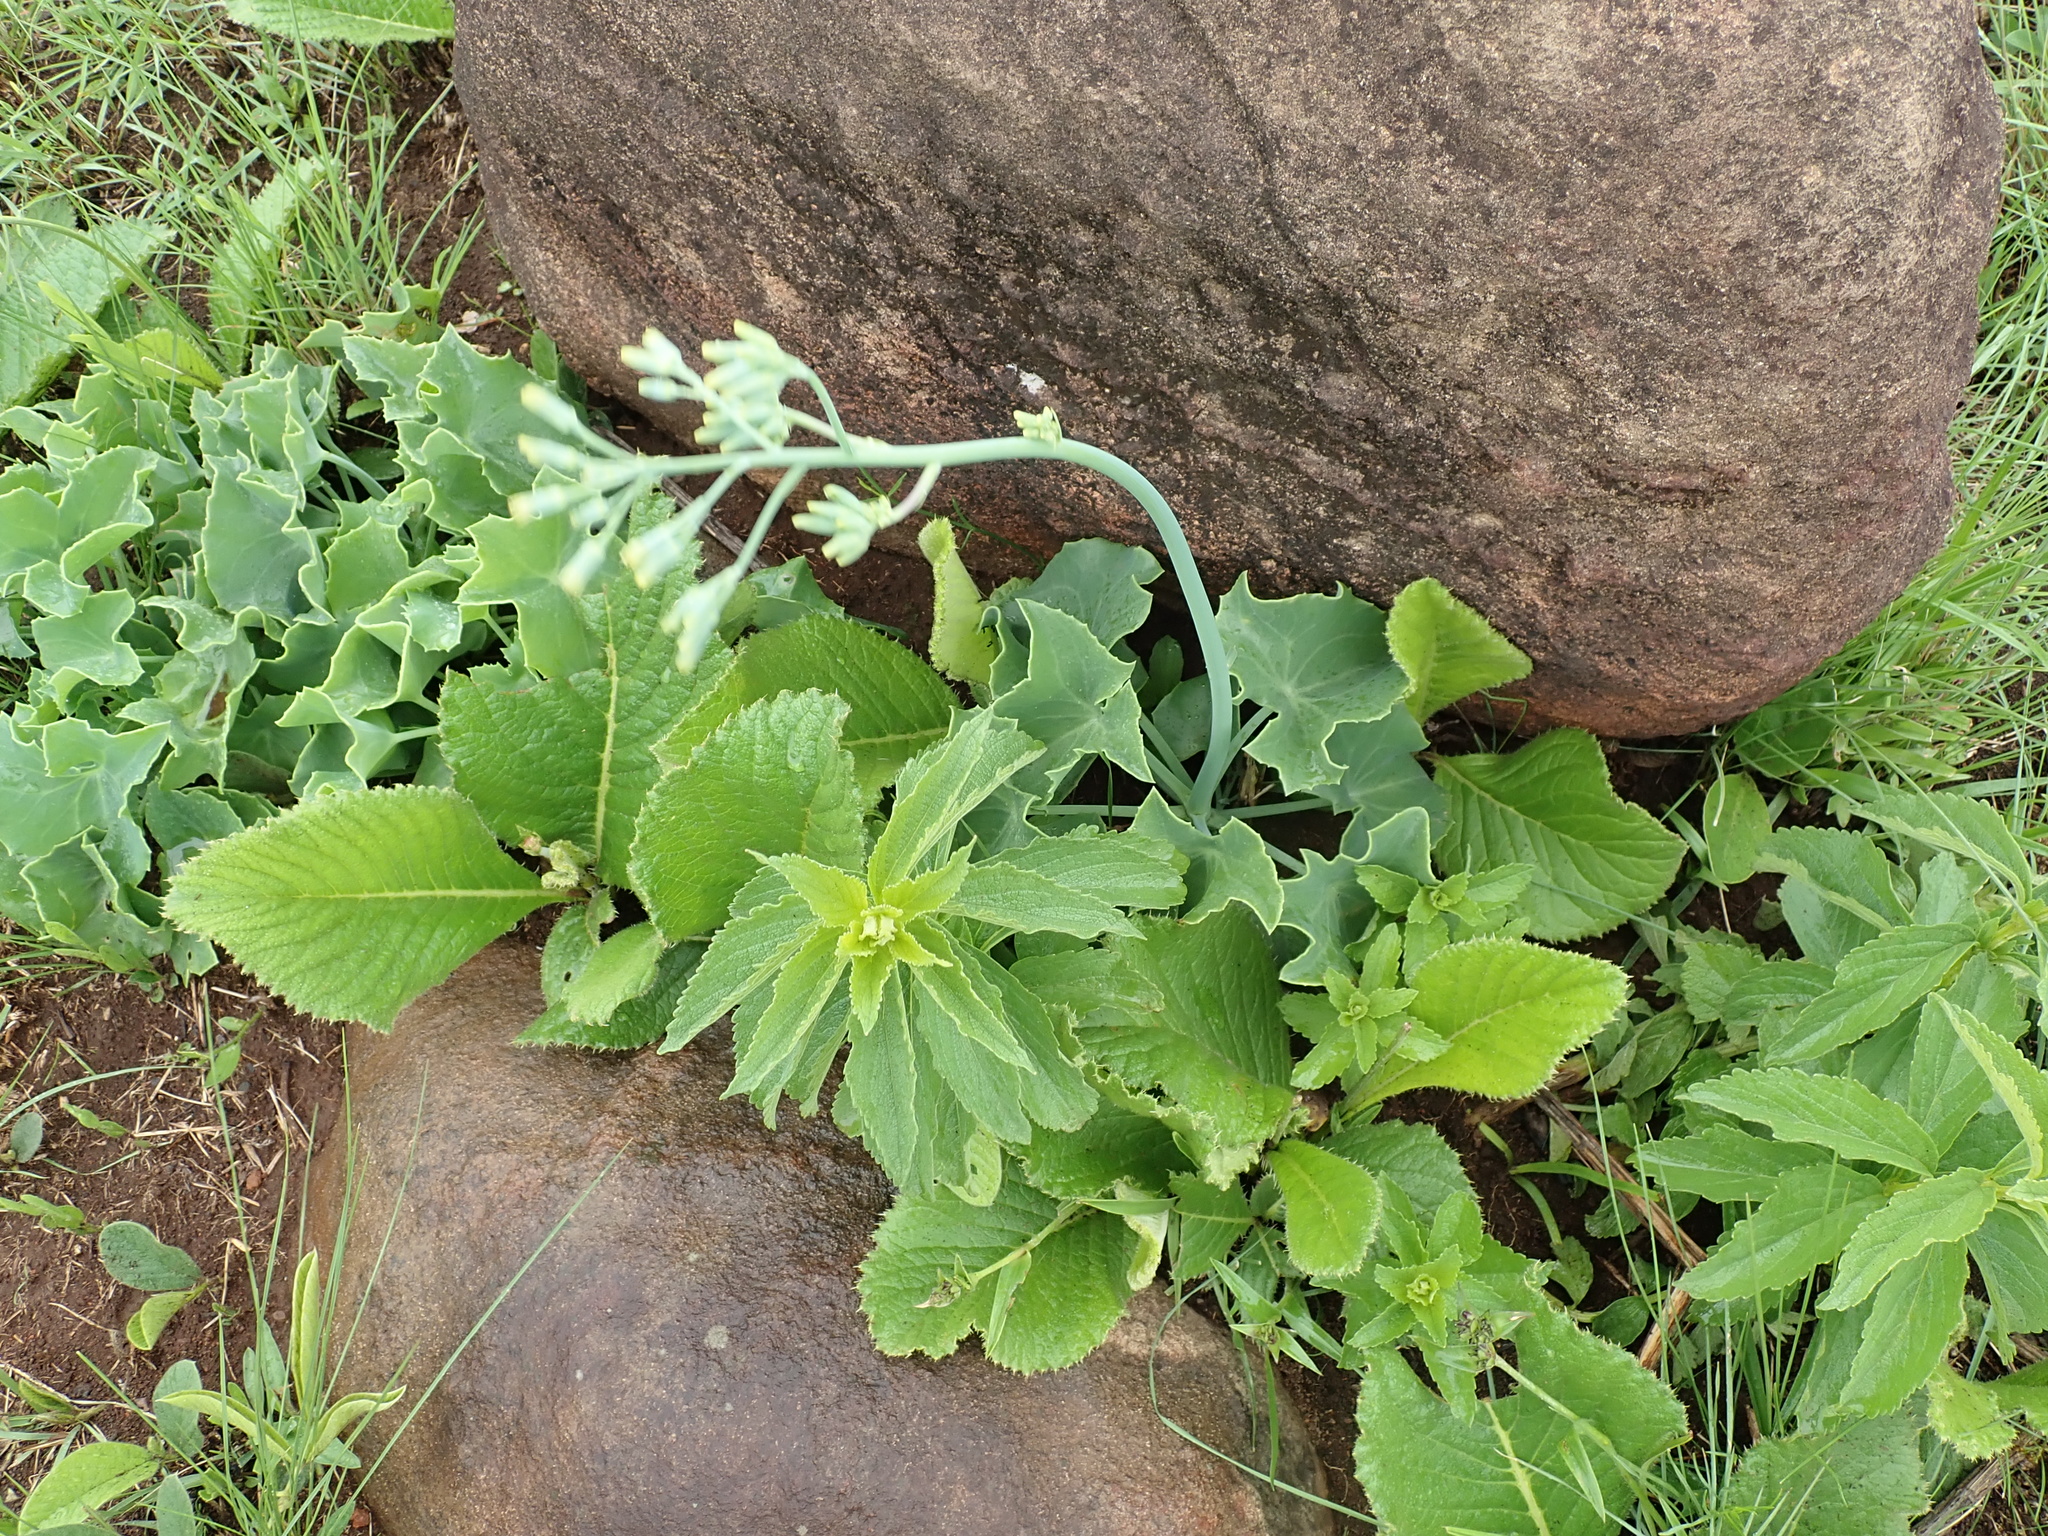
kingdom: Plantae
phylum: Tracheophyta
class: Magnoliopsida
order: Asterales
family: Asteraceae
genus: Senecio
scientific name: Senecio oxyriifolius
